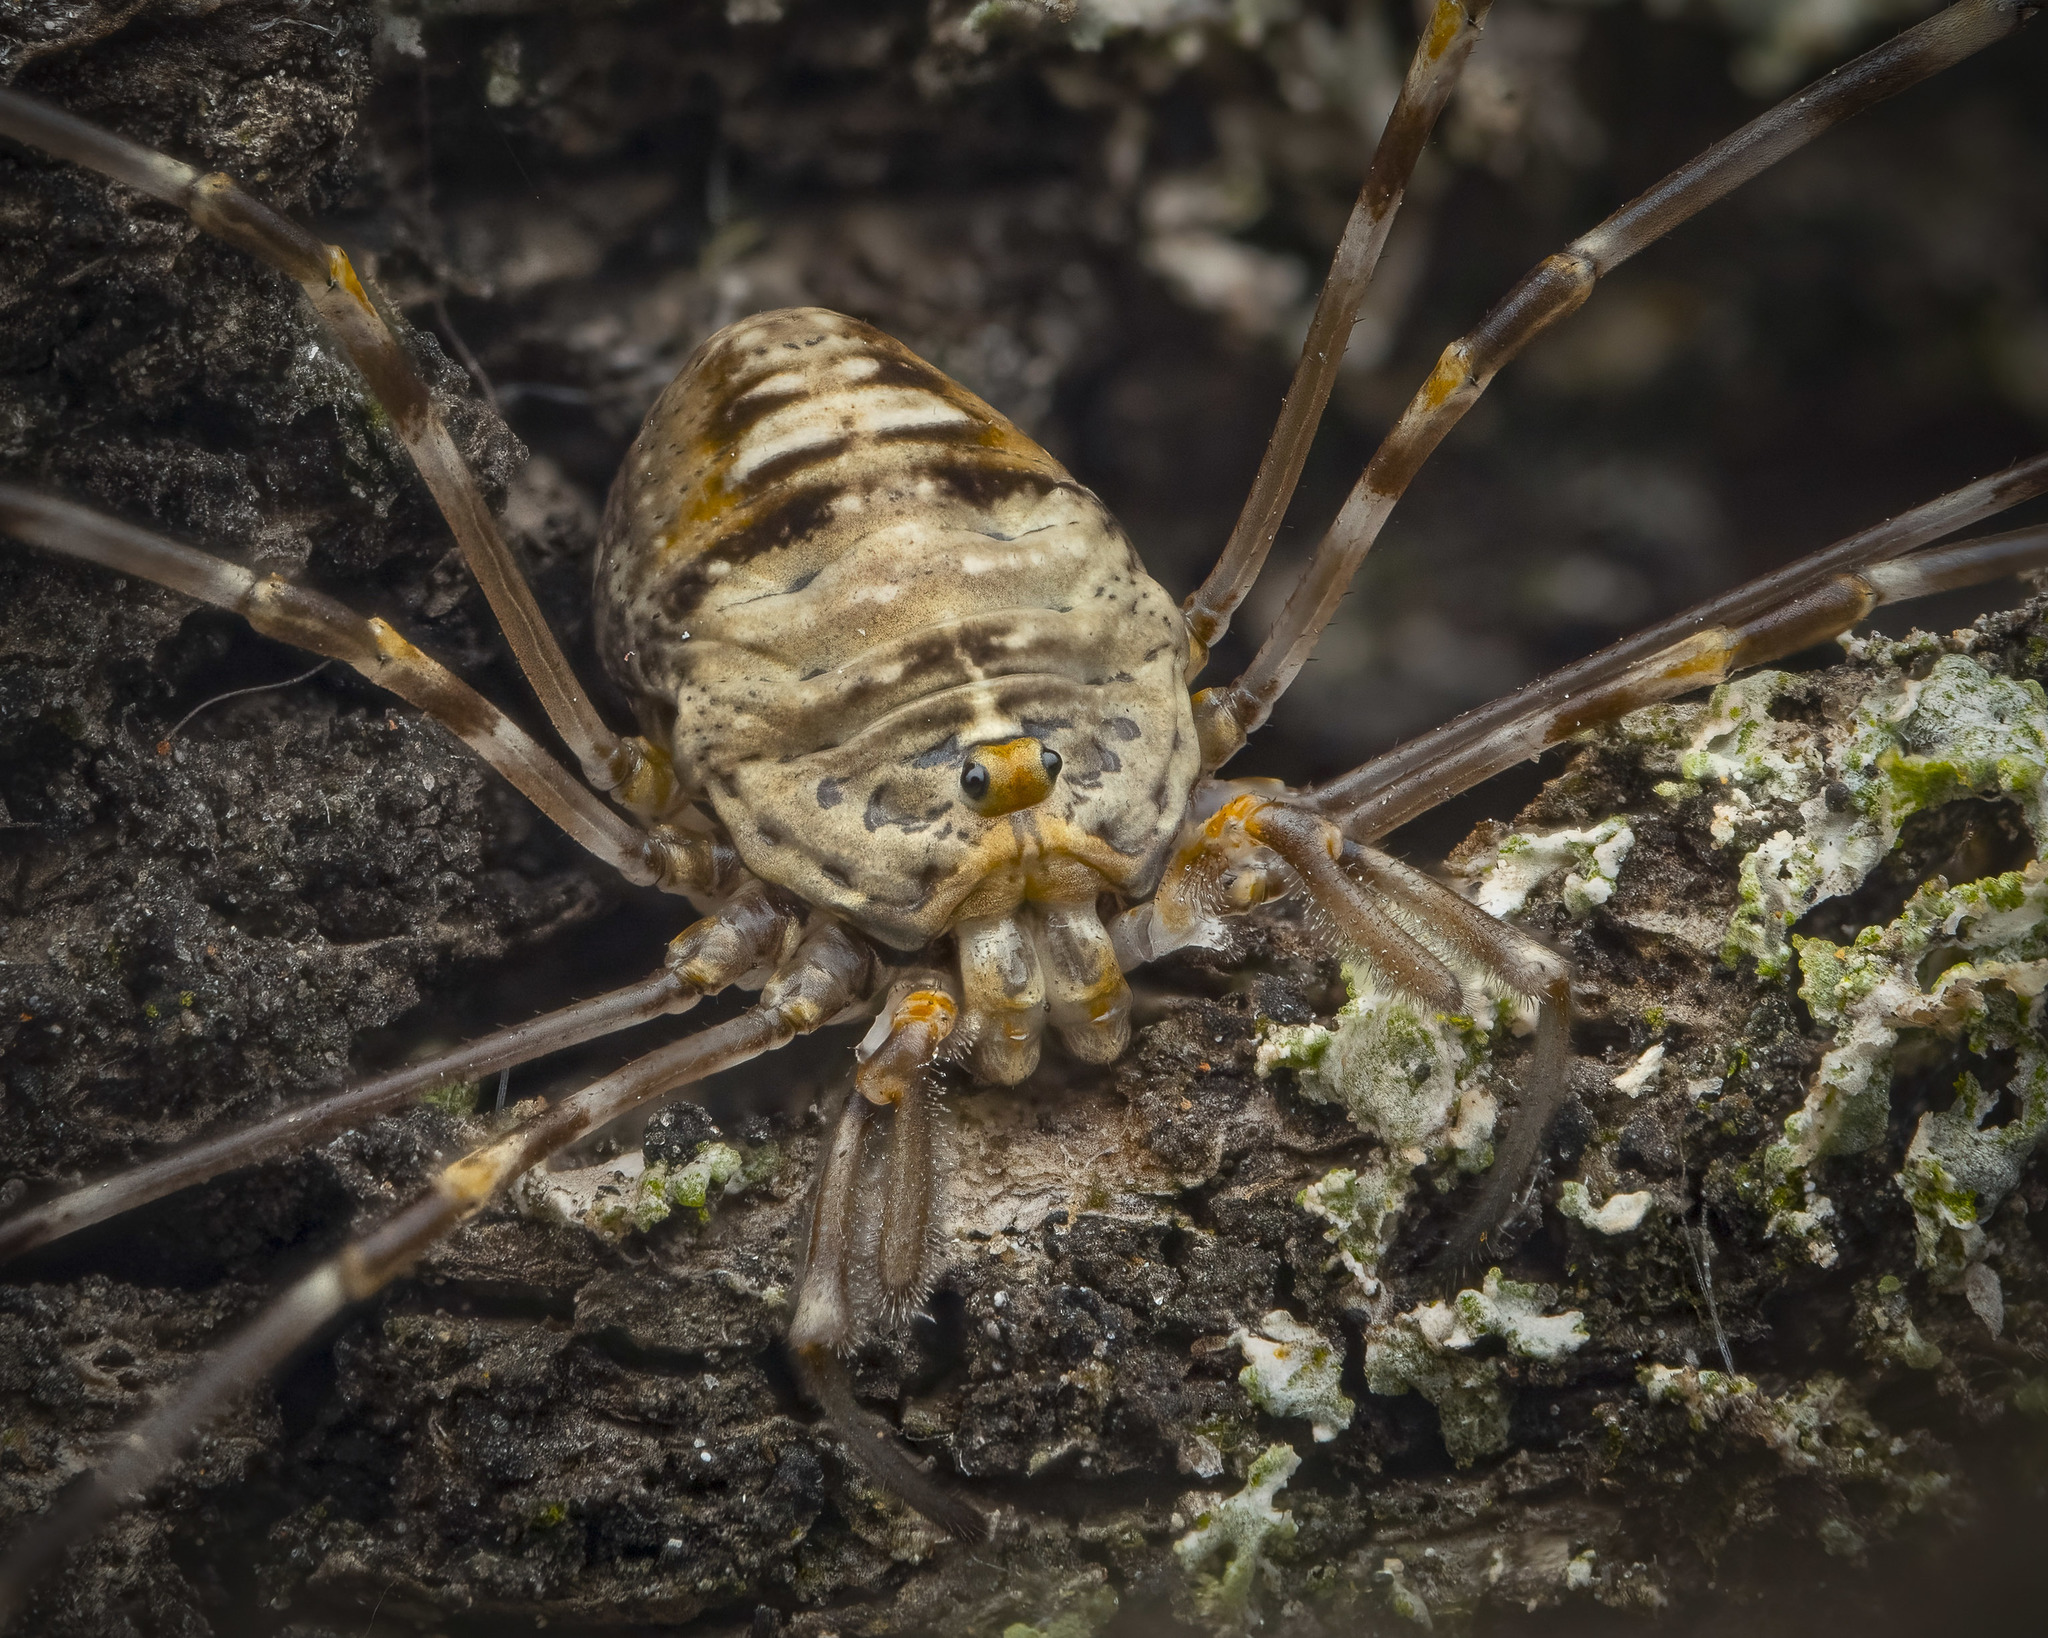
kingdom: Animalia
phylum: Arthropoda
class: Arachnida
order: Opiliones
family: Phalangiidae
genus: Dicranopalpus
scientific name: Dicranopalpus ramosus
